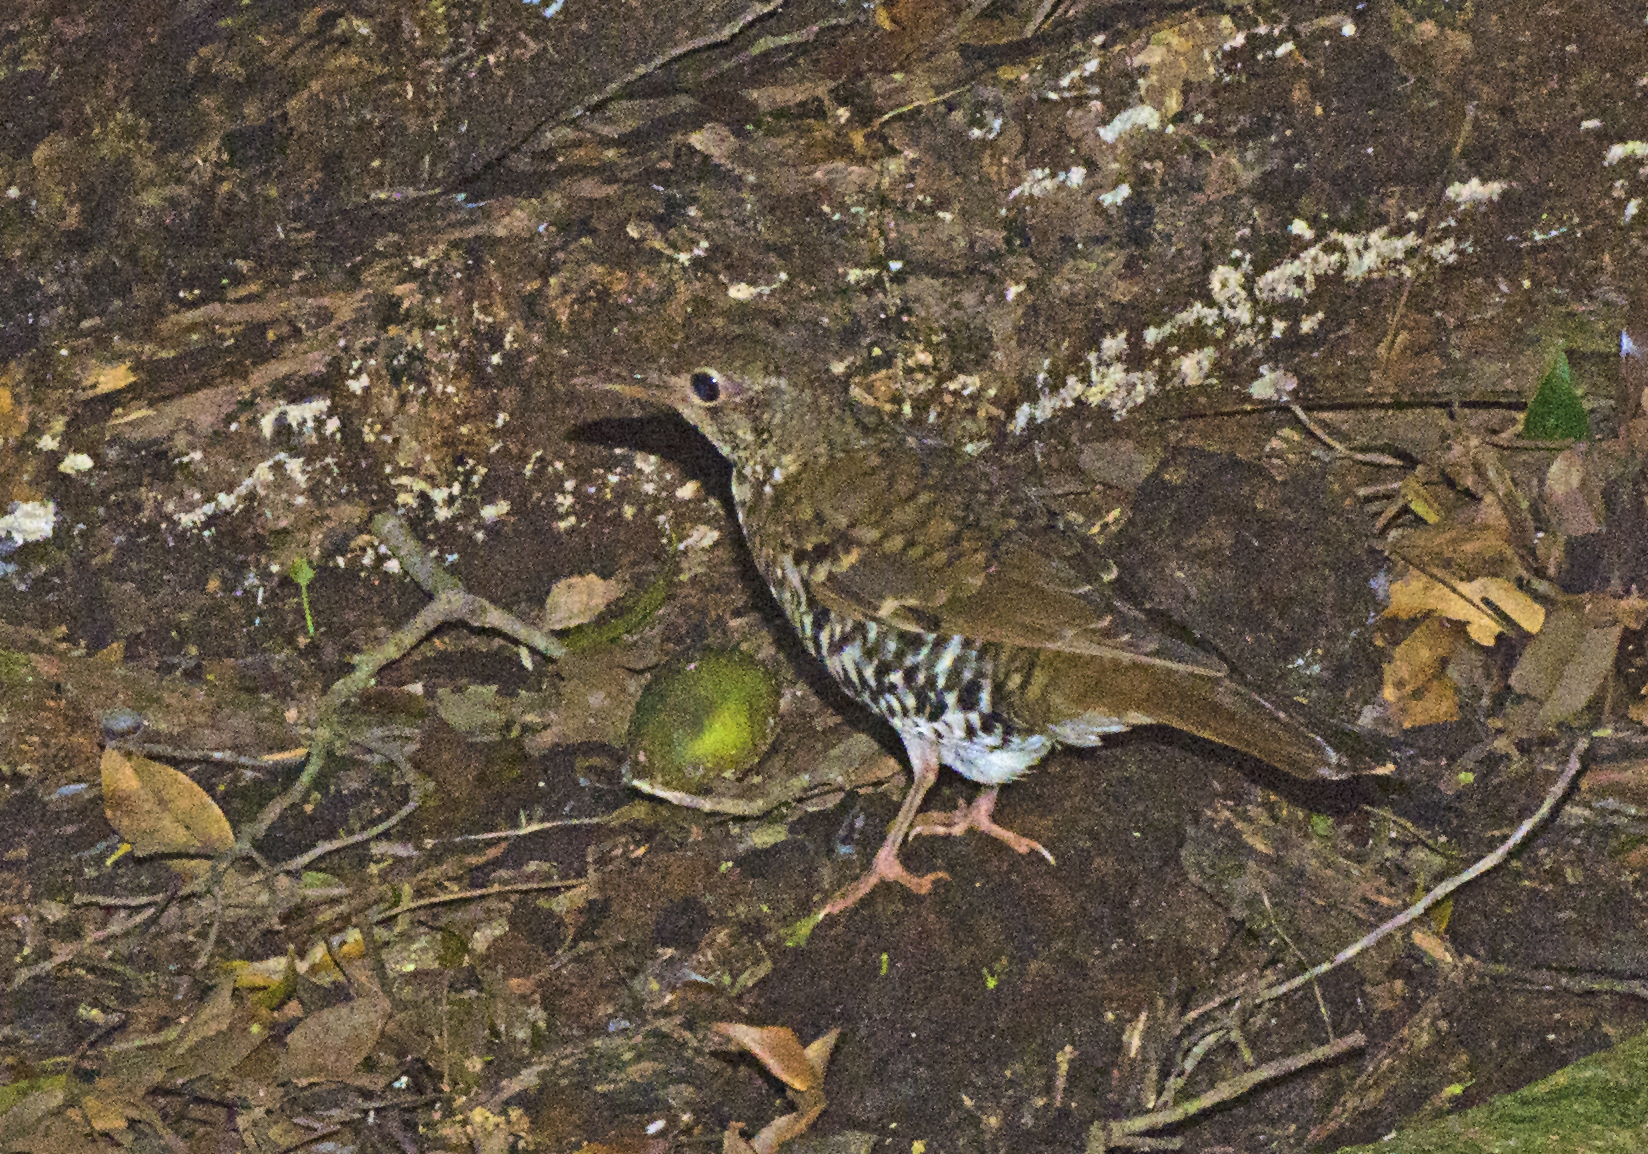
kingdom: Animalia
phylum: Chordata
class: Aves
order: Passeriformes
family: Turdidae
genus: Zoothera
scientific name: Zoothera heinei
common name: Russet-tailed thrush
